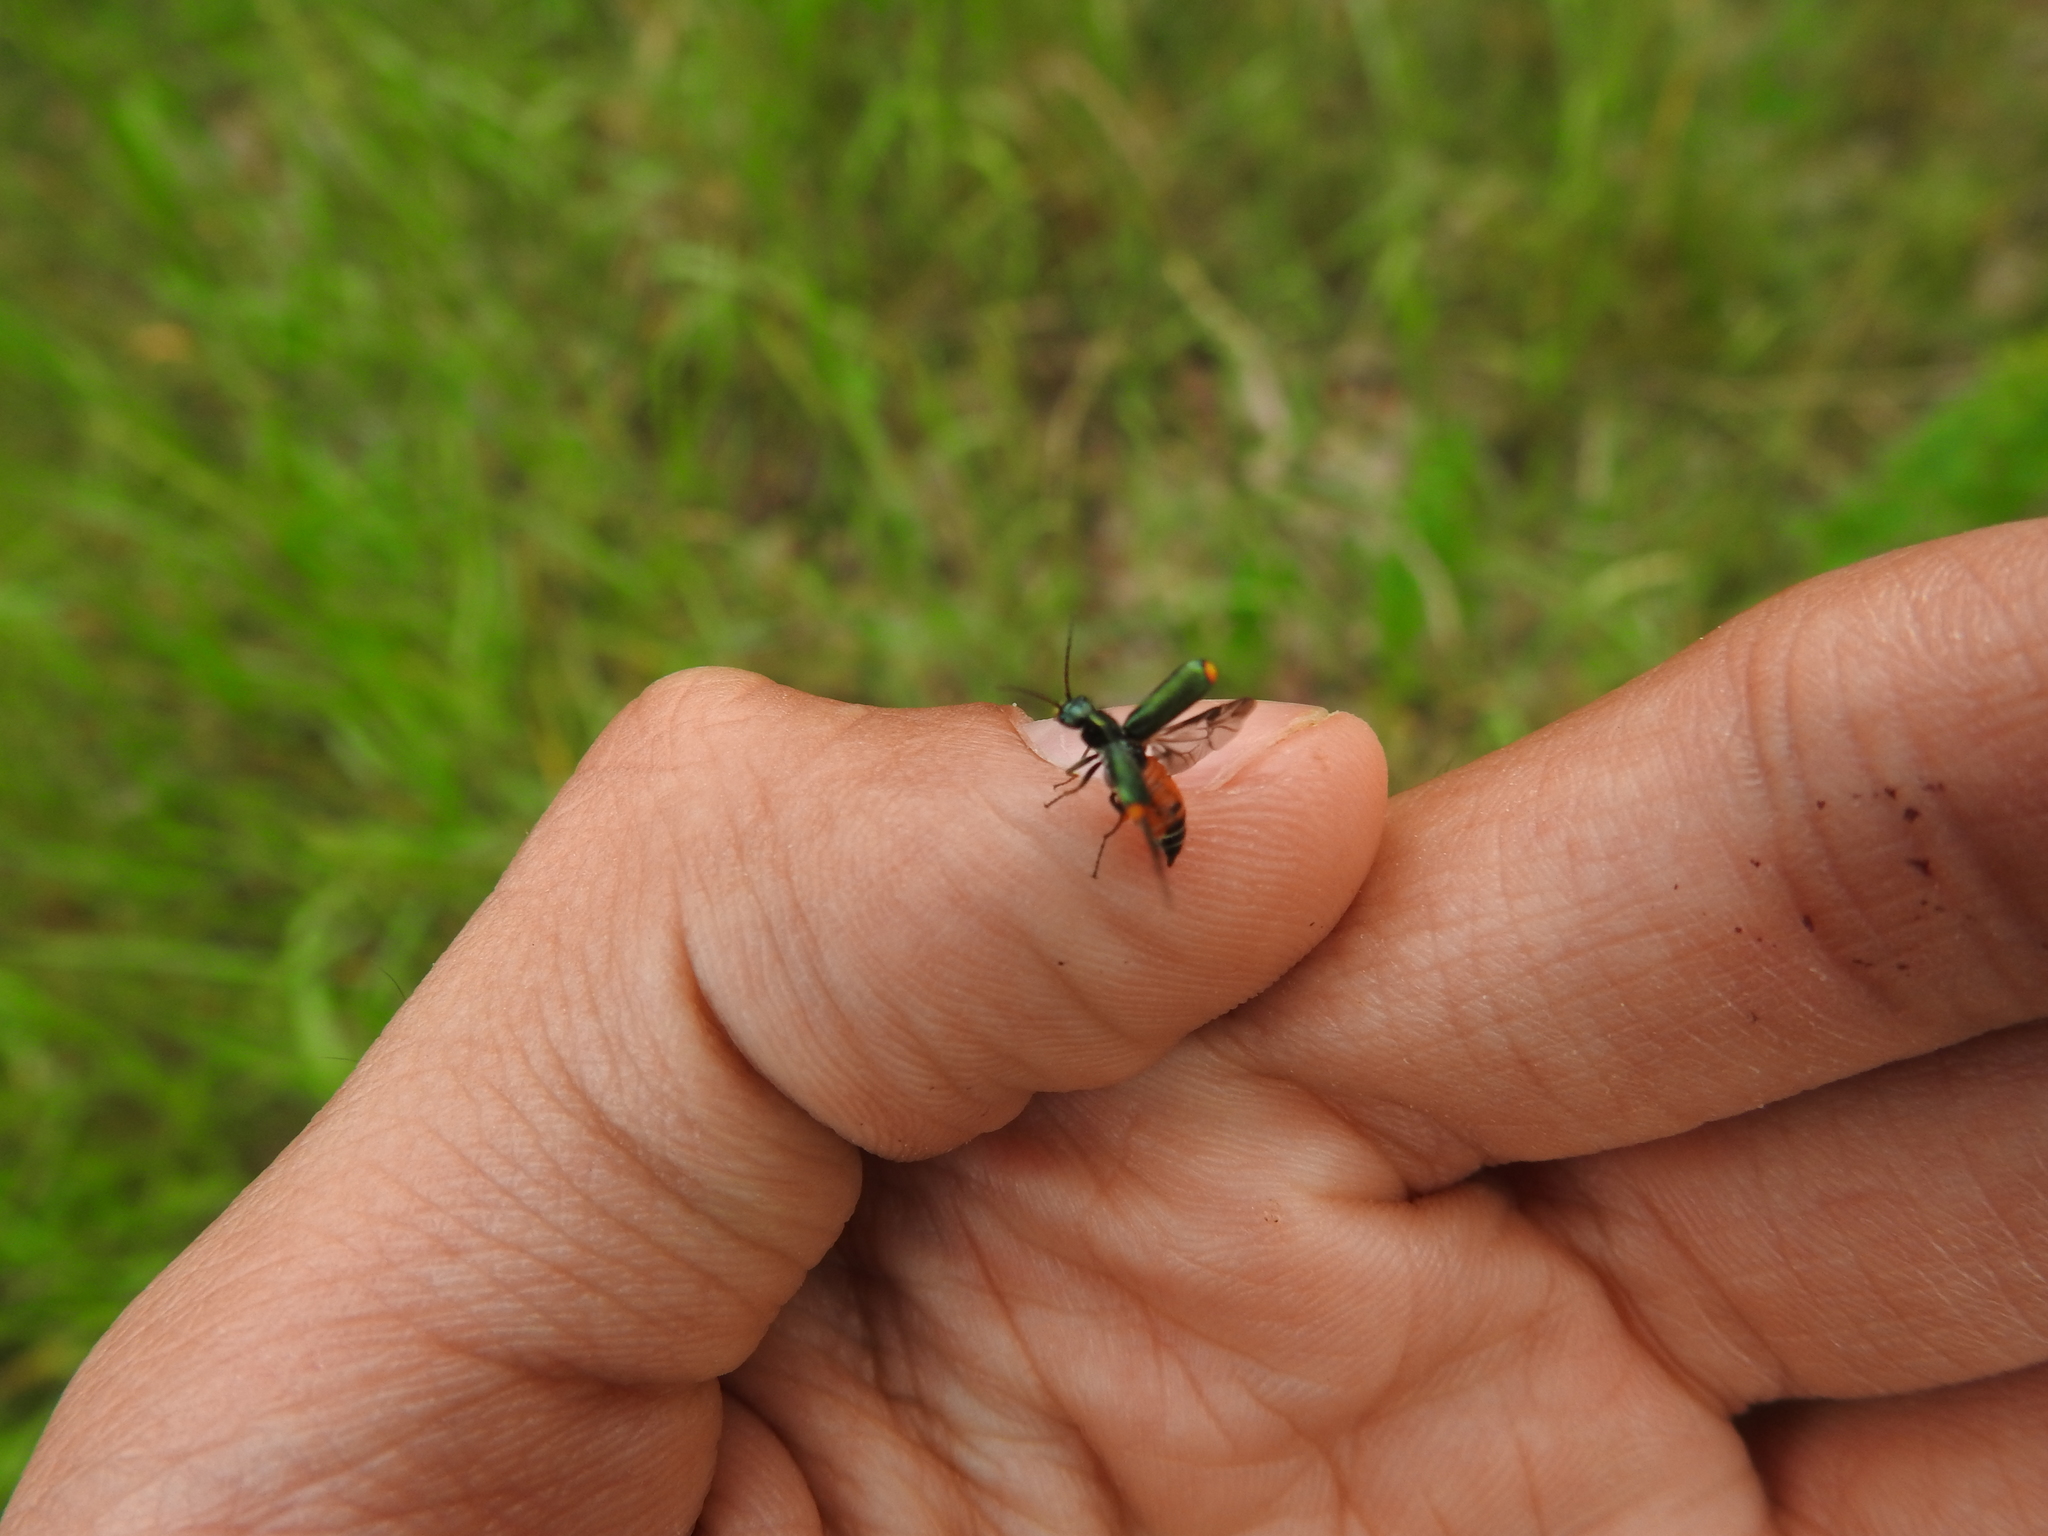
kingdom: Animalia
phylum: Arthropoda
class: Insecta
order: Coleoptera
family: Melyridae
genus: Malachius
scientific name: Malachius bipustulatus
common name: Malachite beetle
